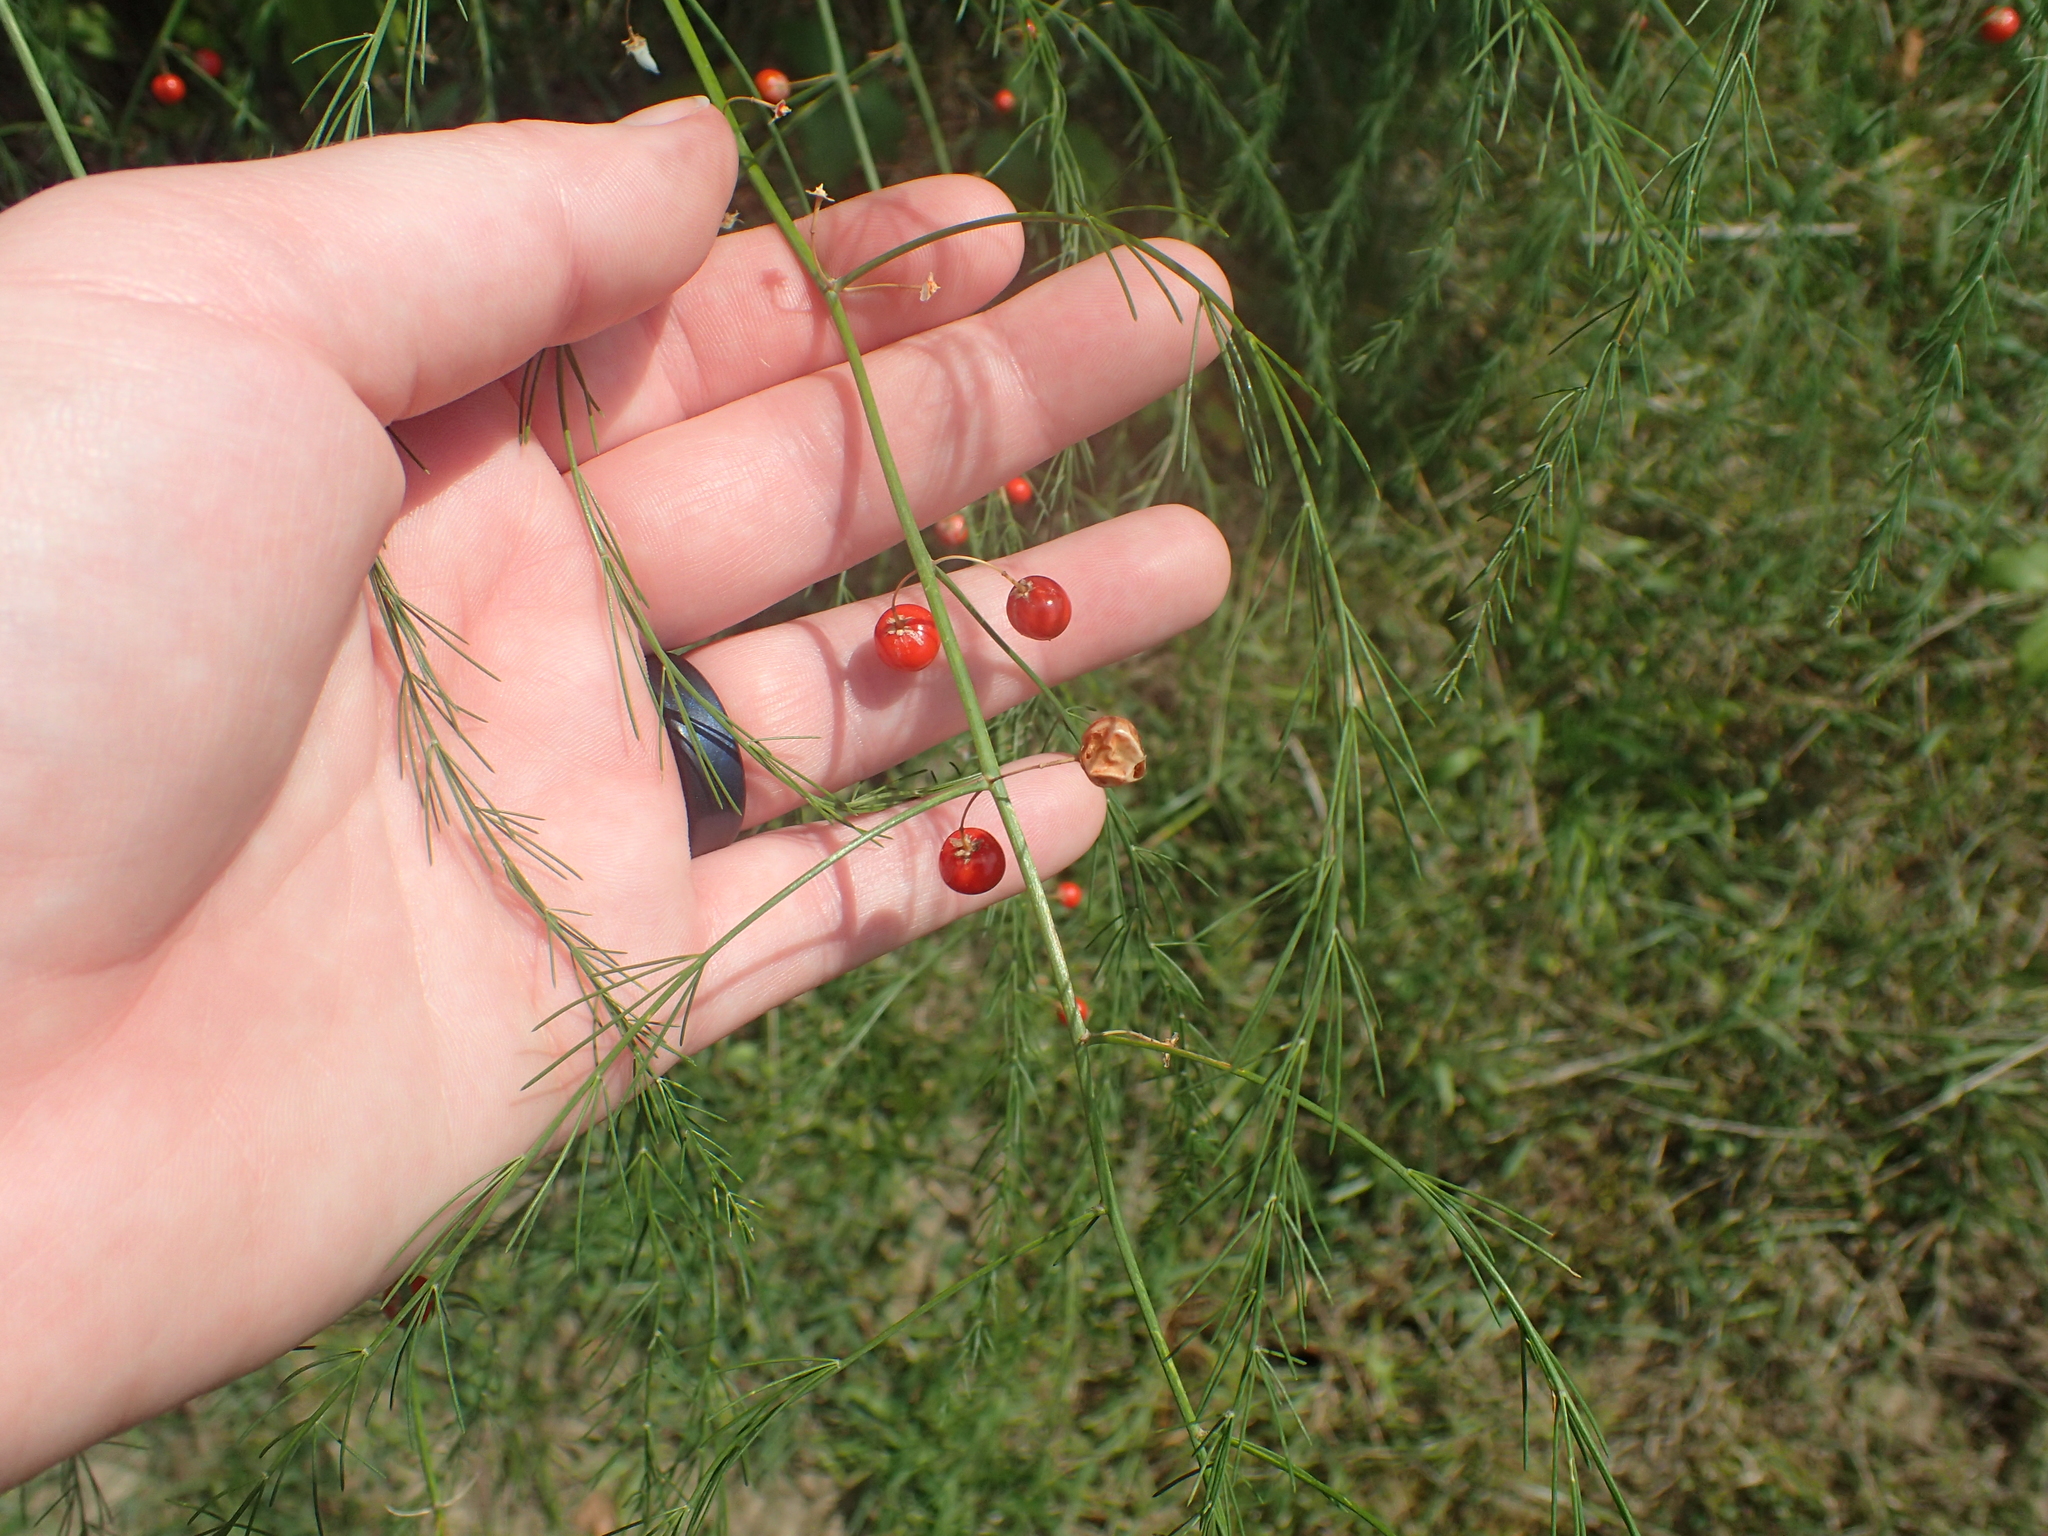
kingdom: Plantae
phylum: Tracheophyta
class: Liliopsida
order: Asparagales
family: Asparagaceae
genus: Asparagus
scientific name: Asparagus officinalis
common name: Garden asparagus
